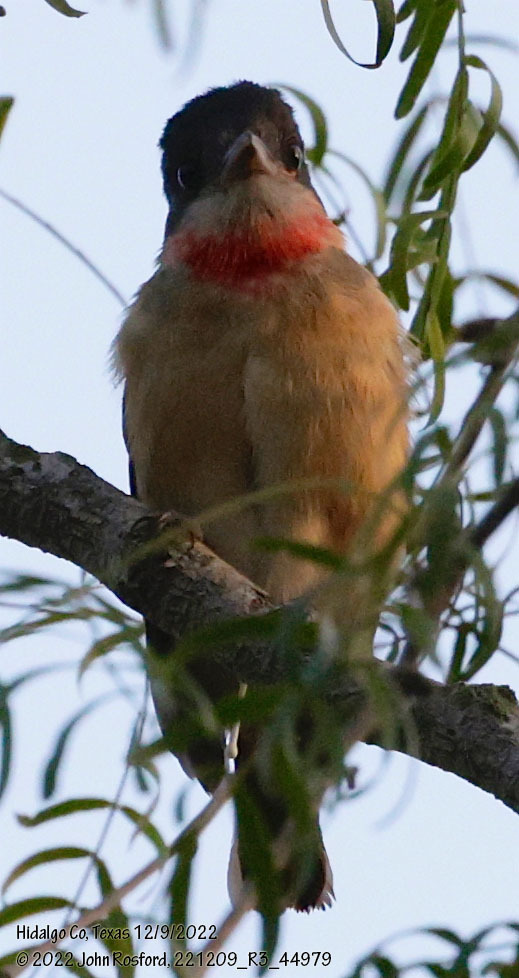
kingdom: Animalia
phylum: Chordata
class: Aves
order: Passeriformes
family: Cotingidae
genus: Pachyramphus
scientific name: Pachyramphus aglaiae
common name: Rose-throated becard
